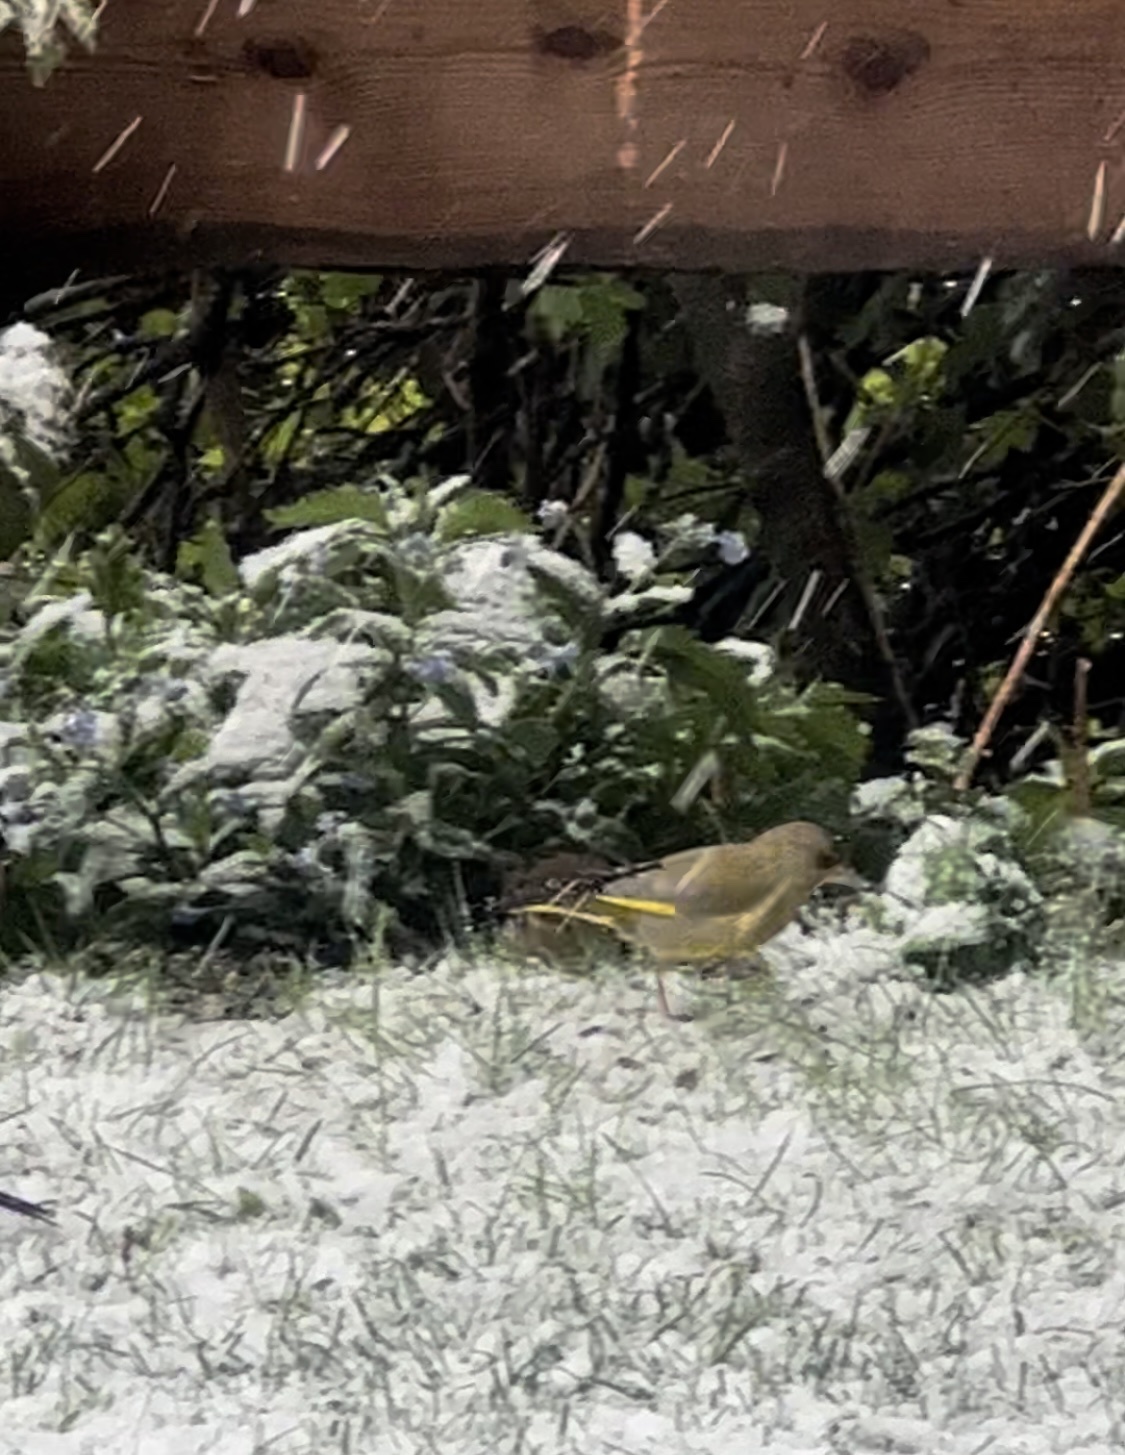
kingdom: Plantae
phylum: Tracheophyta
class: Liliopsida
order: Poales
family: Poaceae
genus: Chloris
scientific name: Chloris chloris
